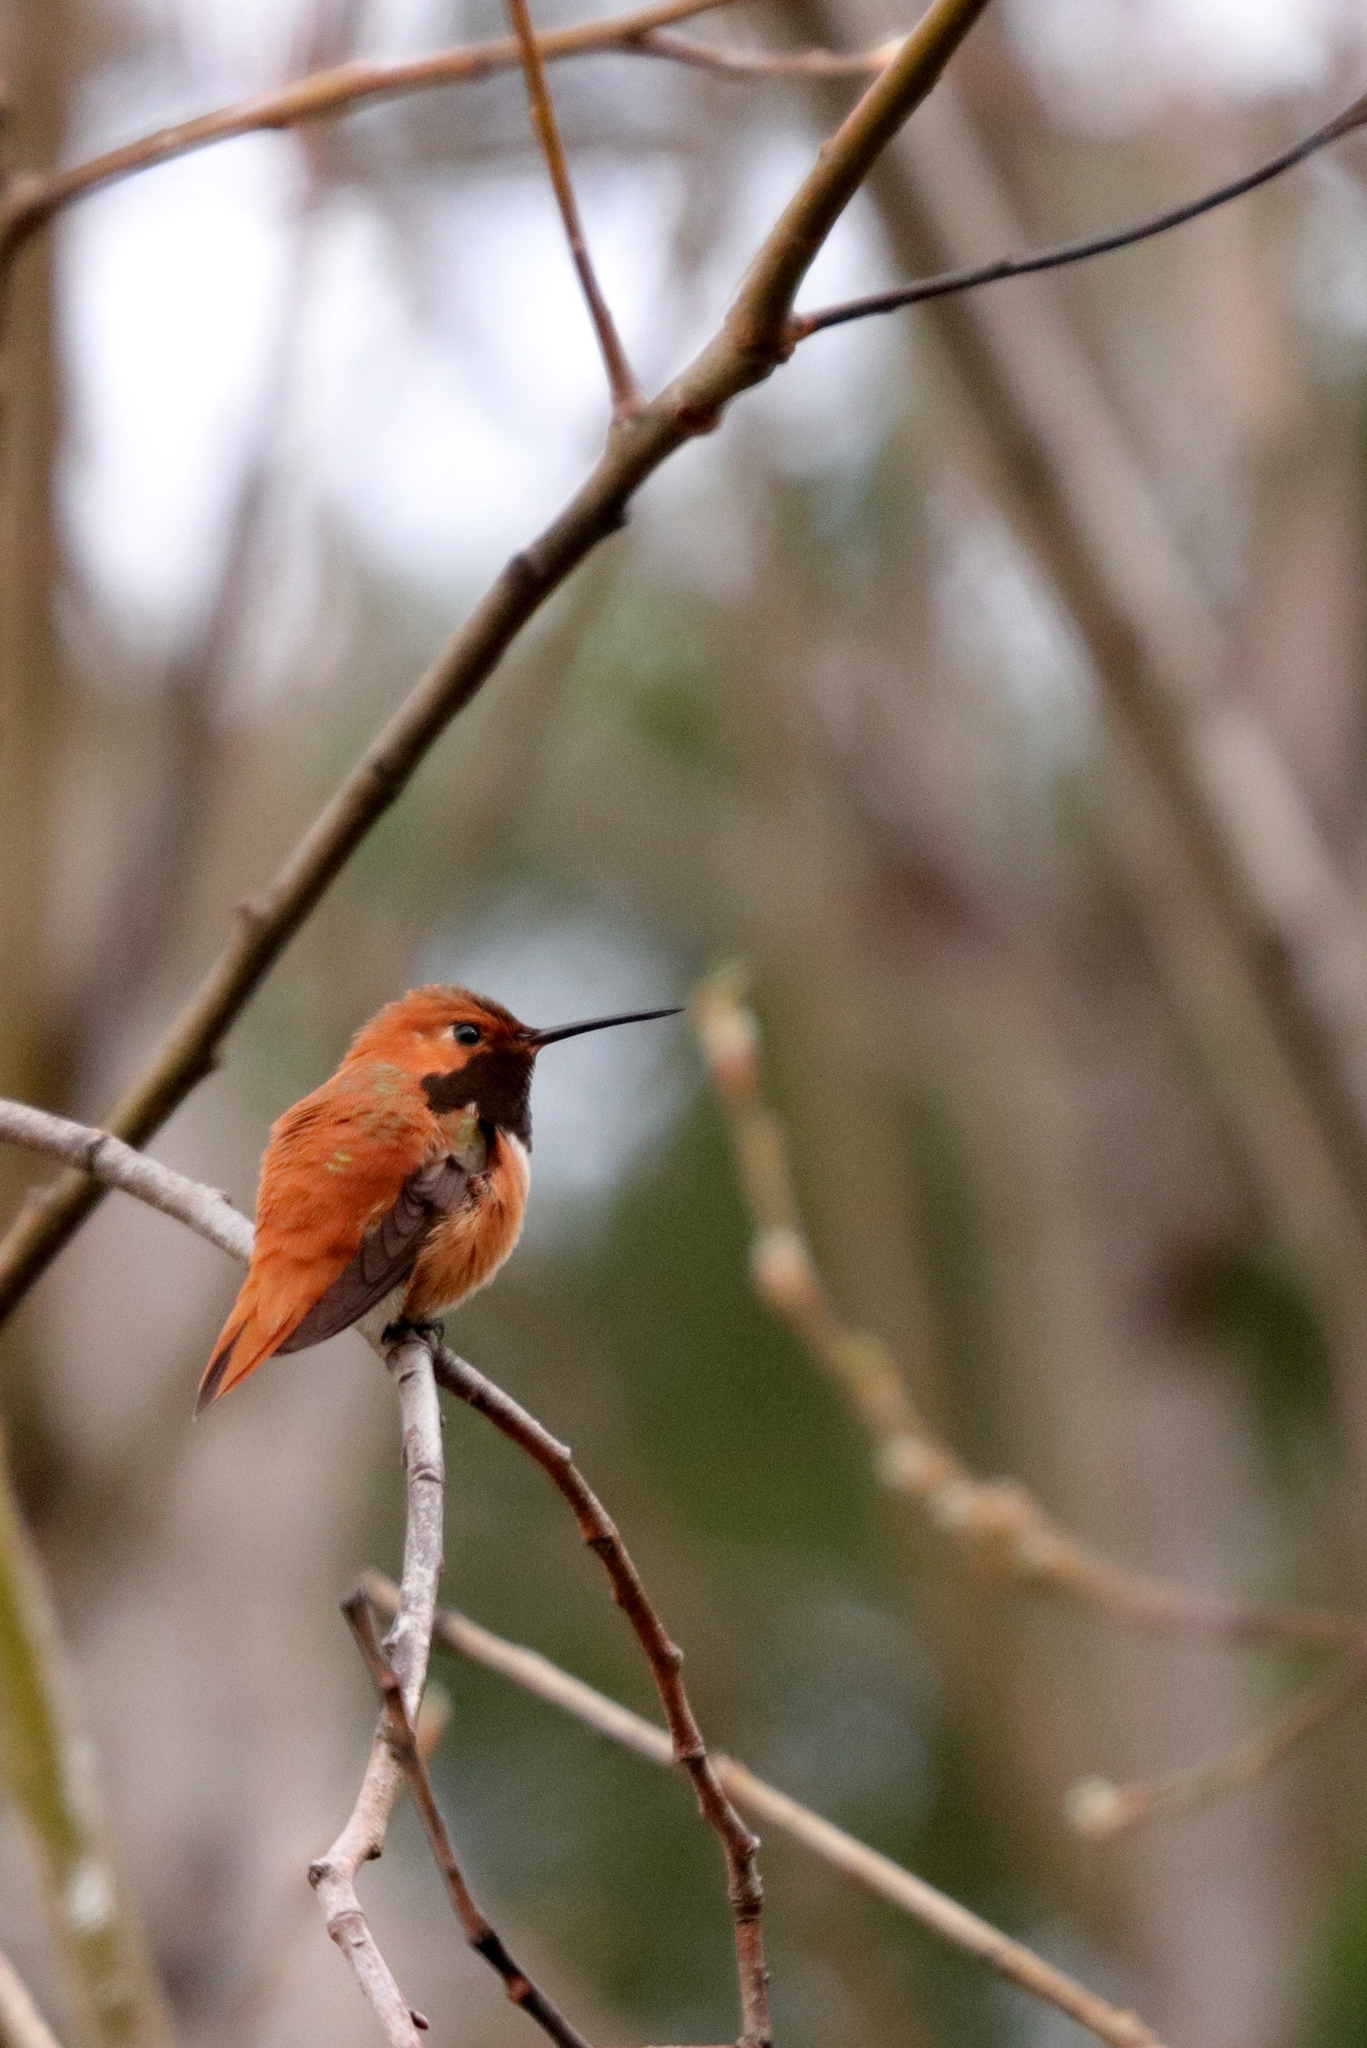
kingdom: Animalia
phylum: Chordata
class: Aves
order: Apodiformes
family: Trochilidae
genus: Selasphorus
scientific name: Selasphorus rufus
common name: Rufous hummingbird
